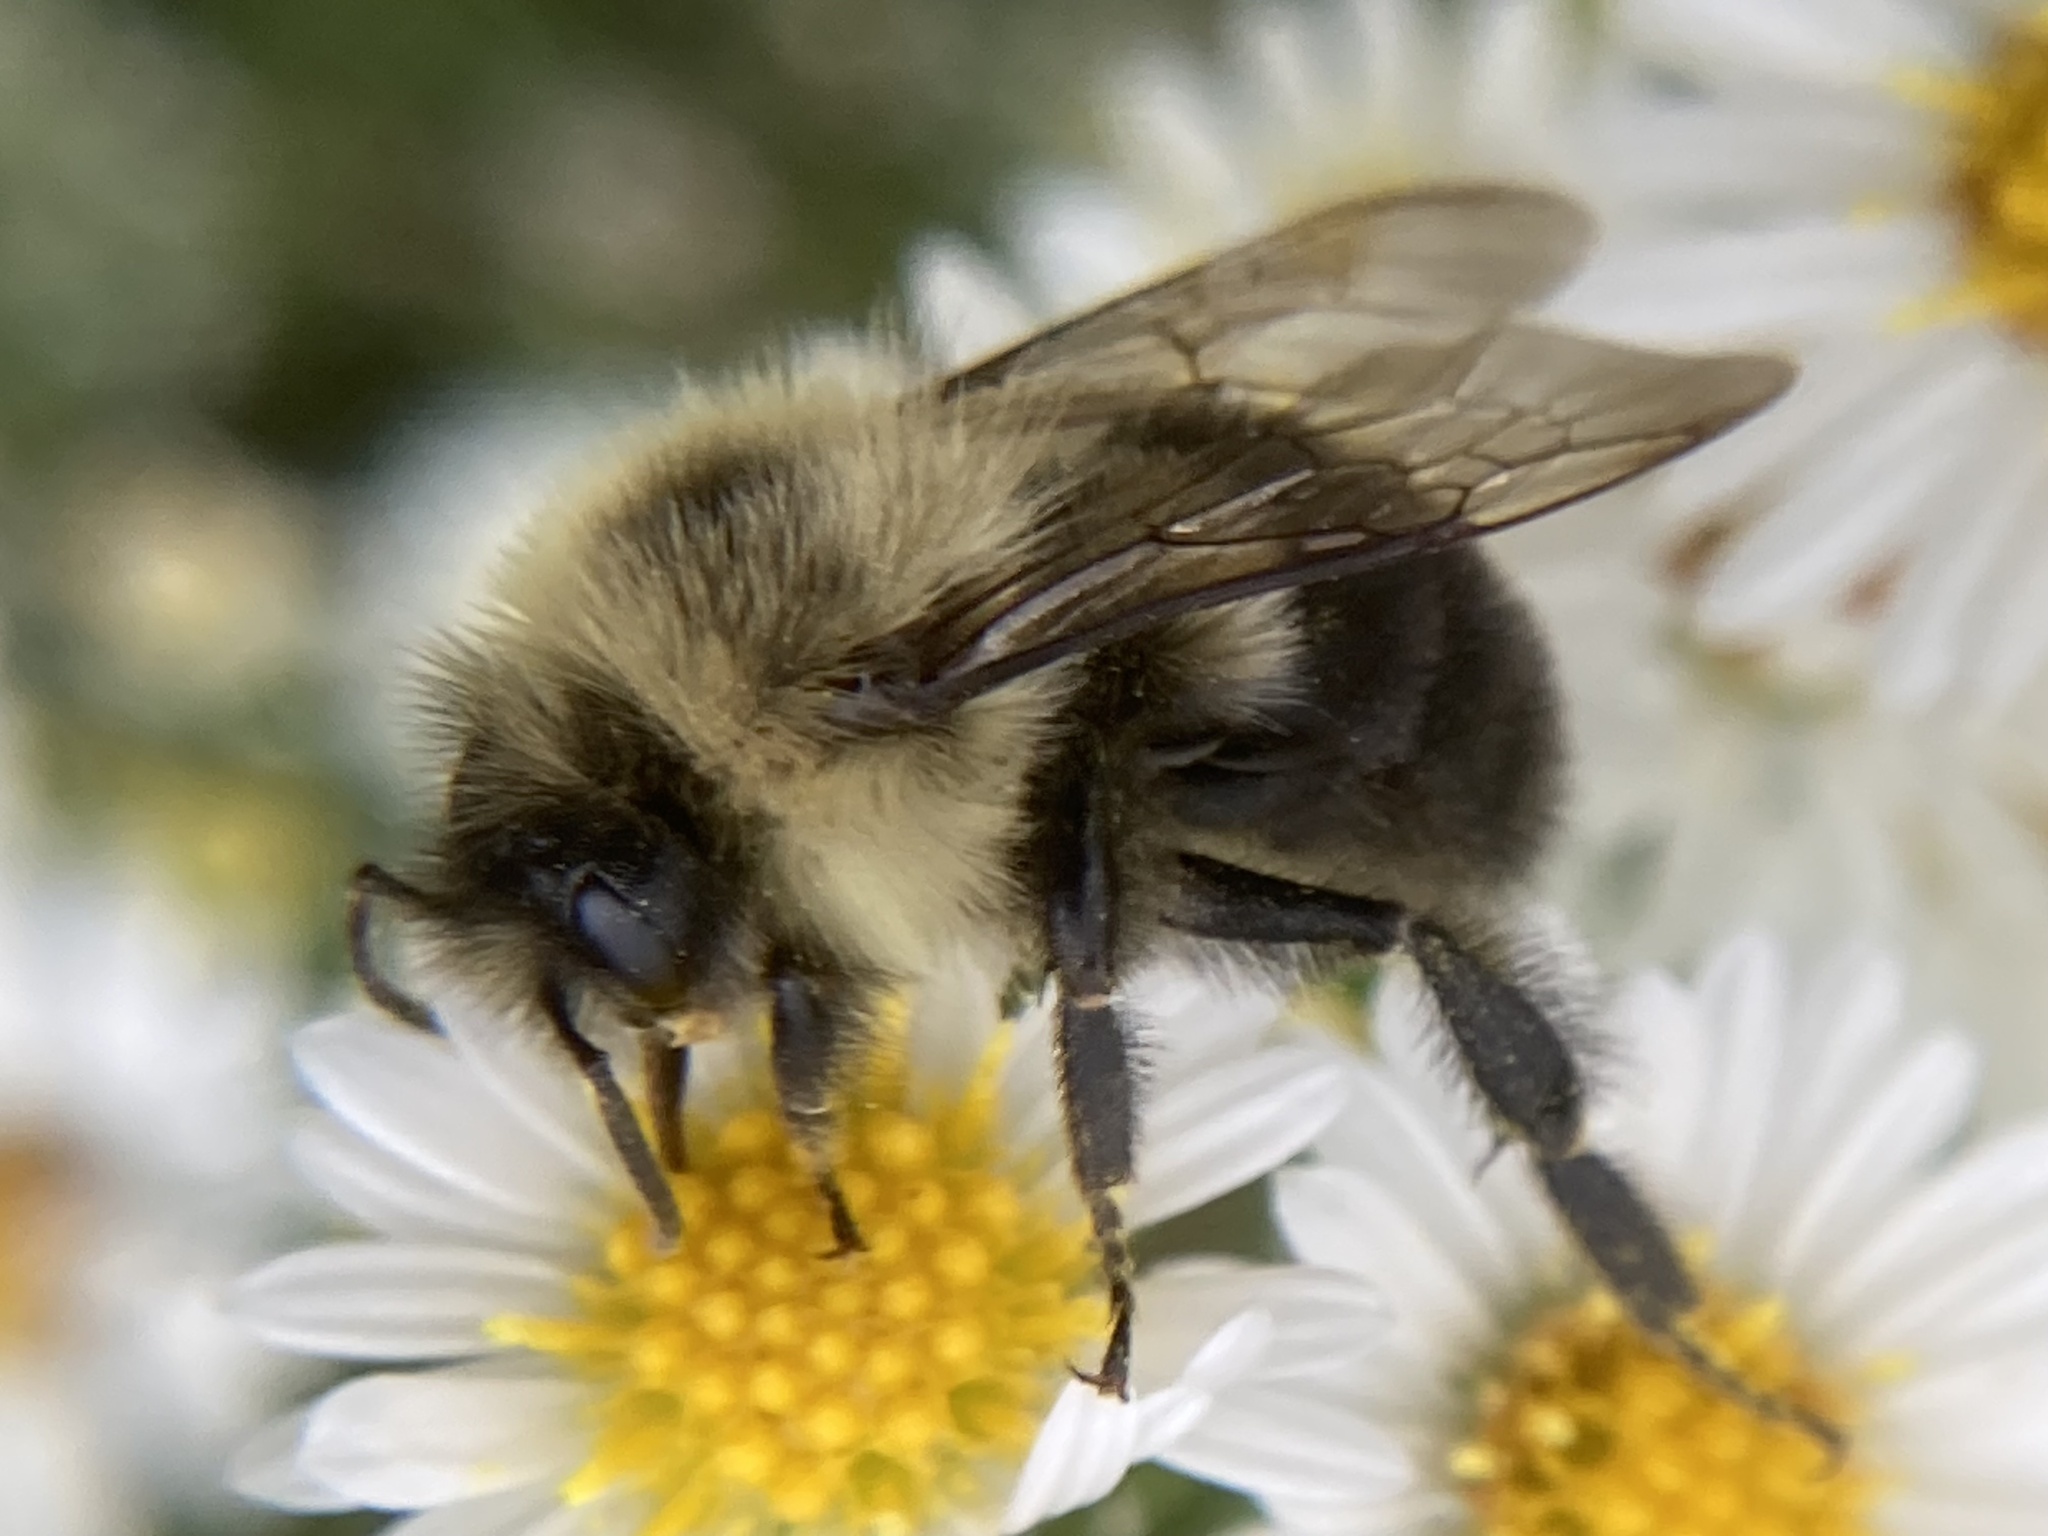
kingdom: Animalia
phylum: Arthropoda
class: Insecta
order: Hymenoptera
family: Apidae
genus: Bombus
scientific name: Bombus impatiens
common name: Common eastern bumble bee
